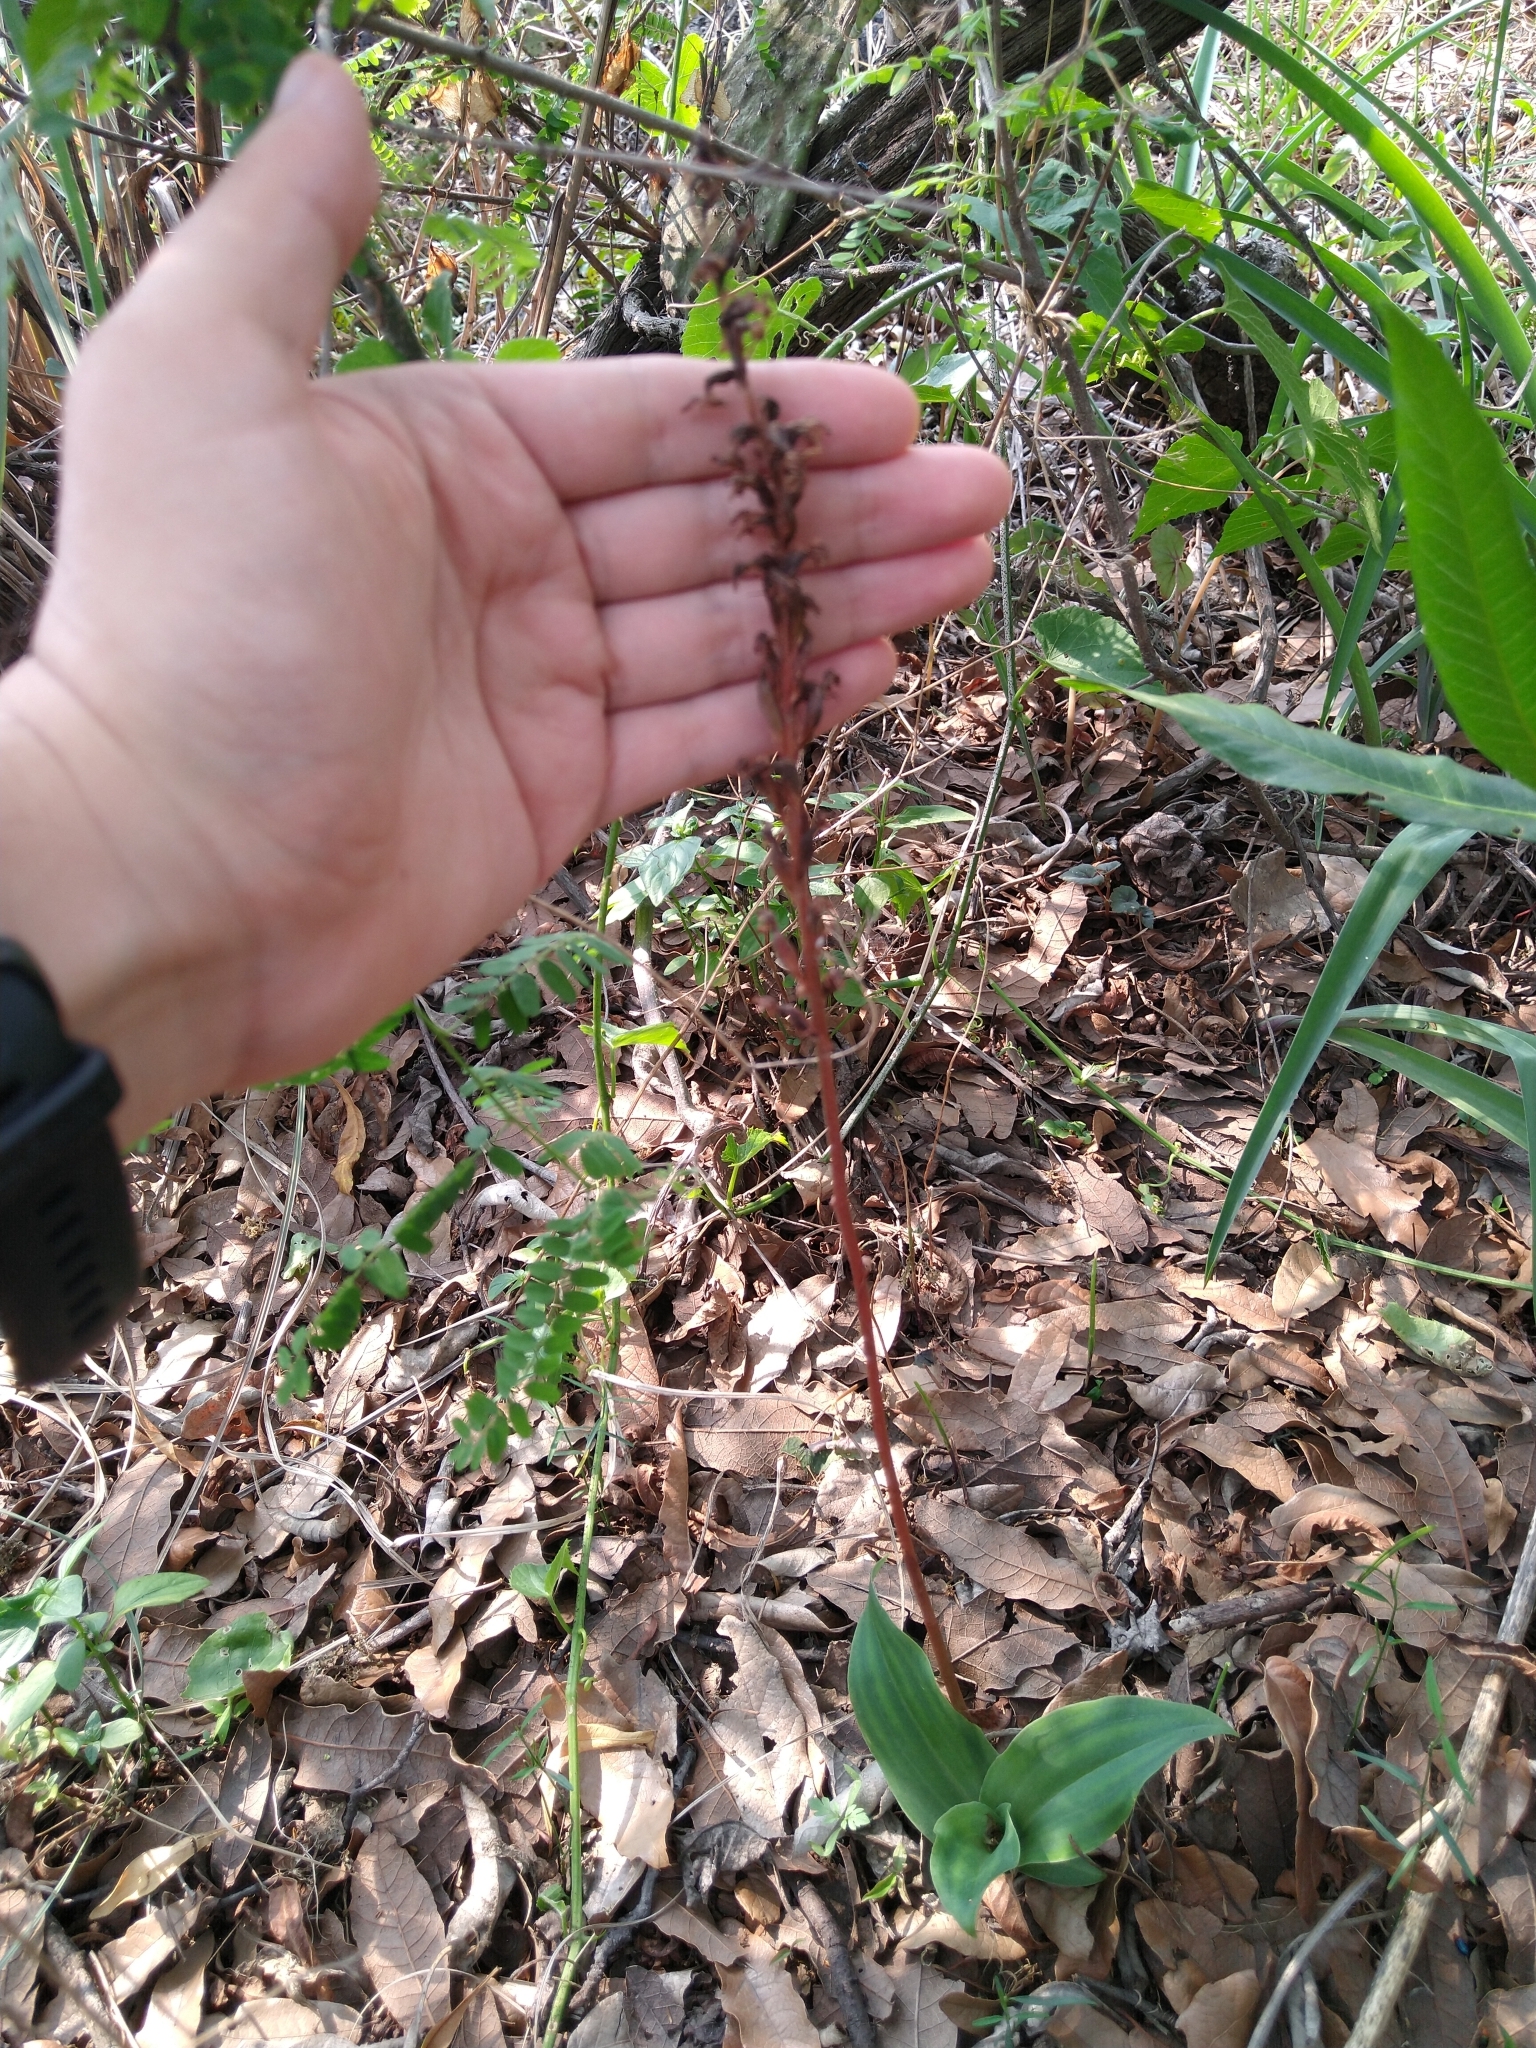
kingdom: Plantae
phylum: Tracheophyta
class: Liliopsida
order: Asparagales
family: Orchidaceae
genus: Sarcoglottis
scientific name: Sarcoglottis schaffneri
